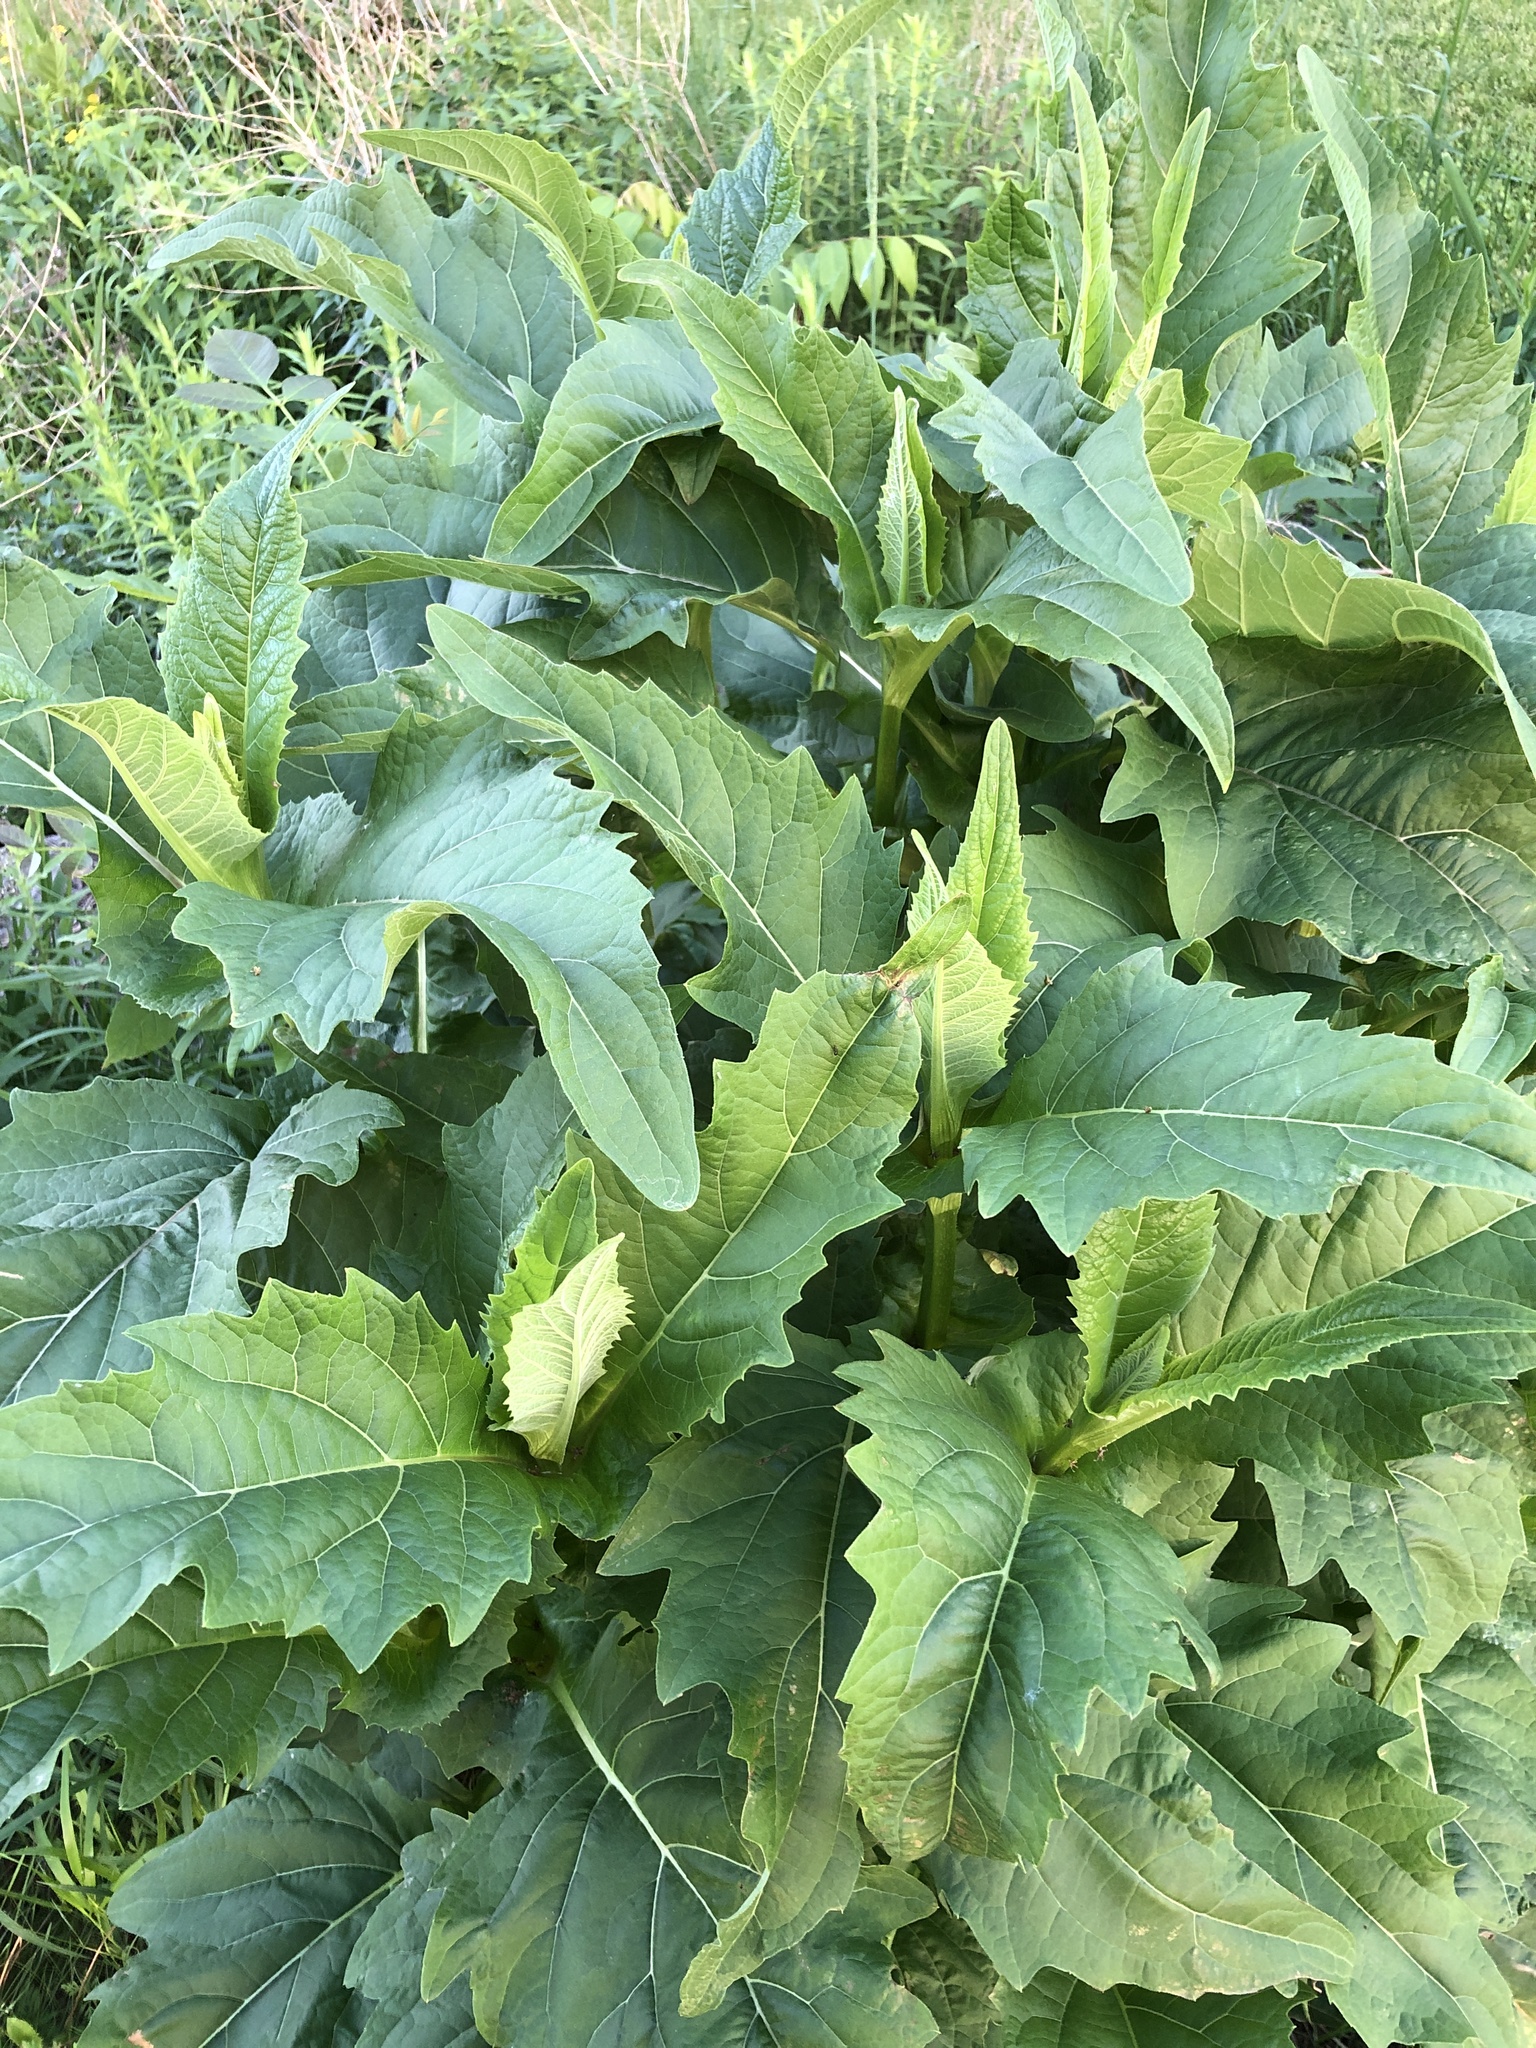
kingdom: Plantae
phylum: Tracheophyta
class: Magnoliopsida
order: Asterales
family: Asteraceae
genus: Silphium
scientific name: Silphium perfoliatum
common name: Cup-plant
